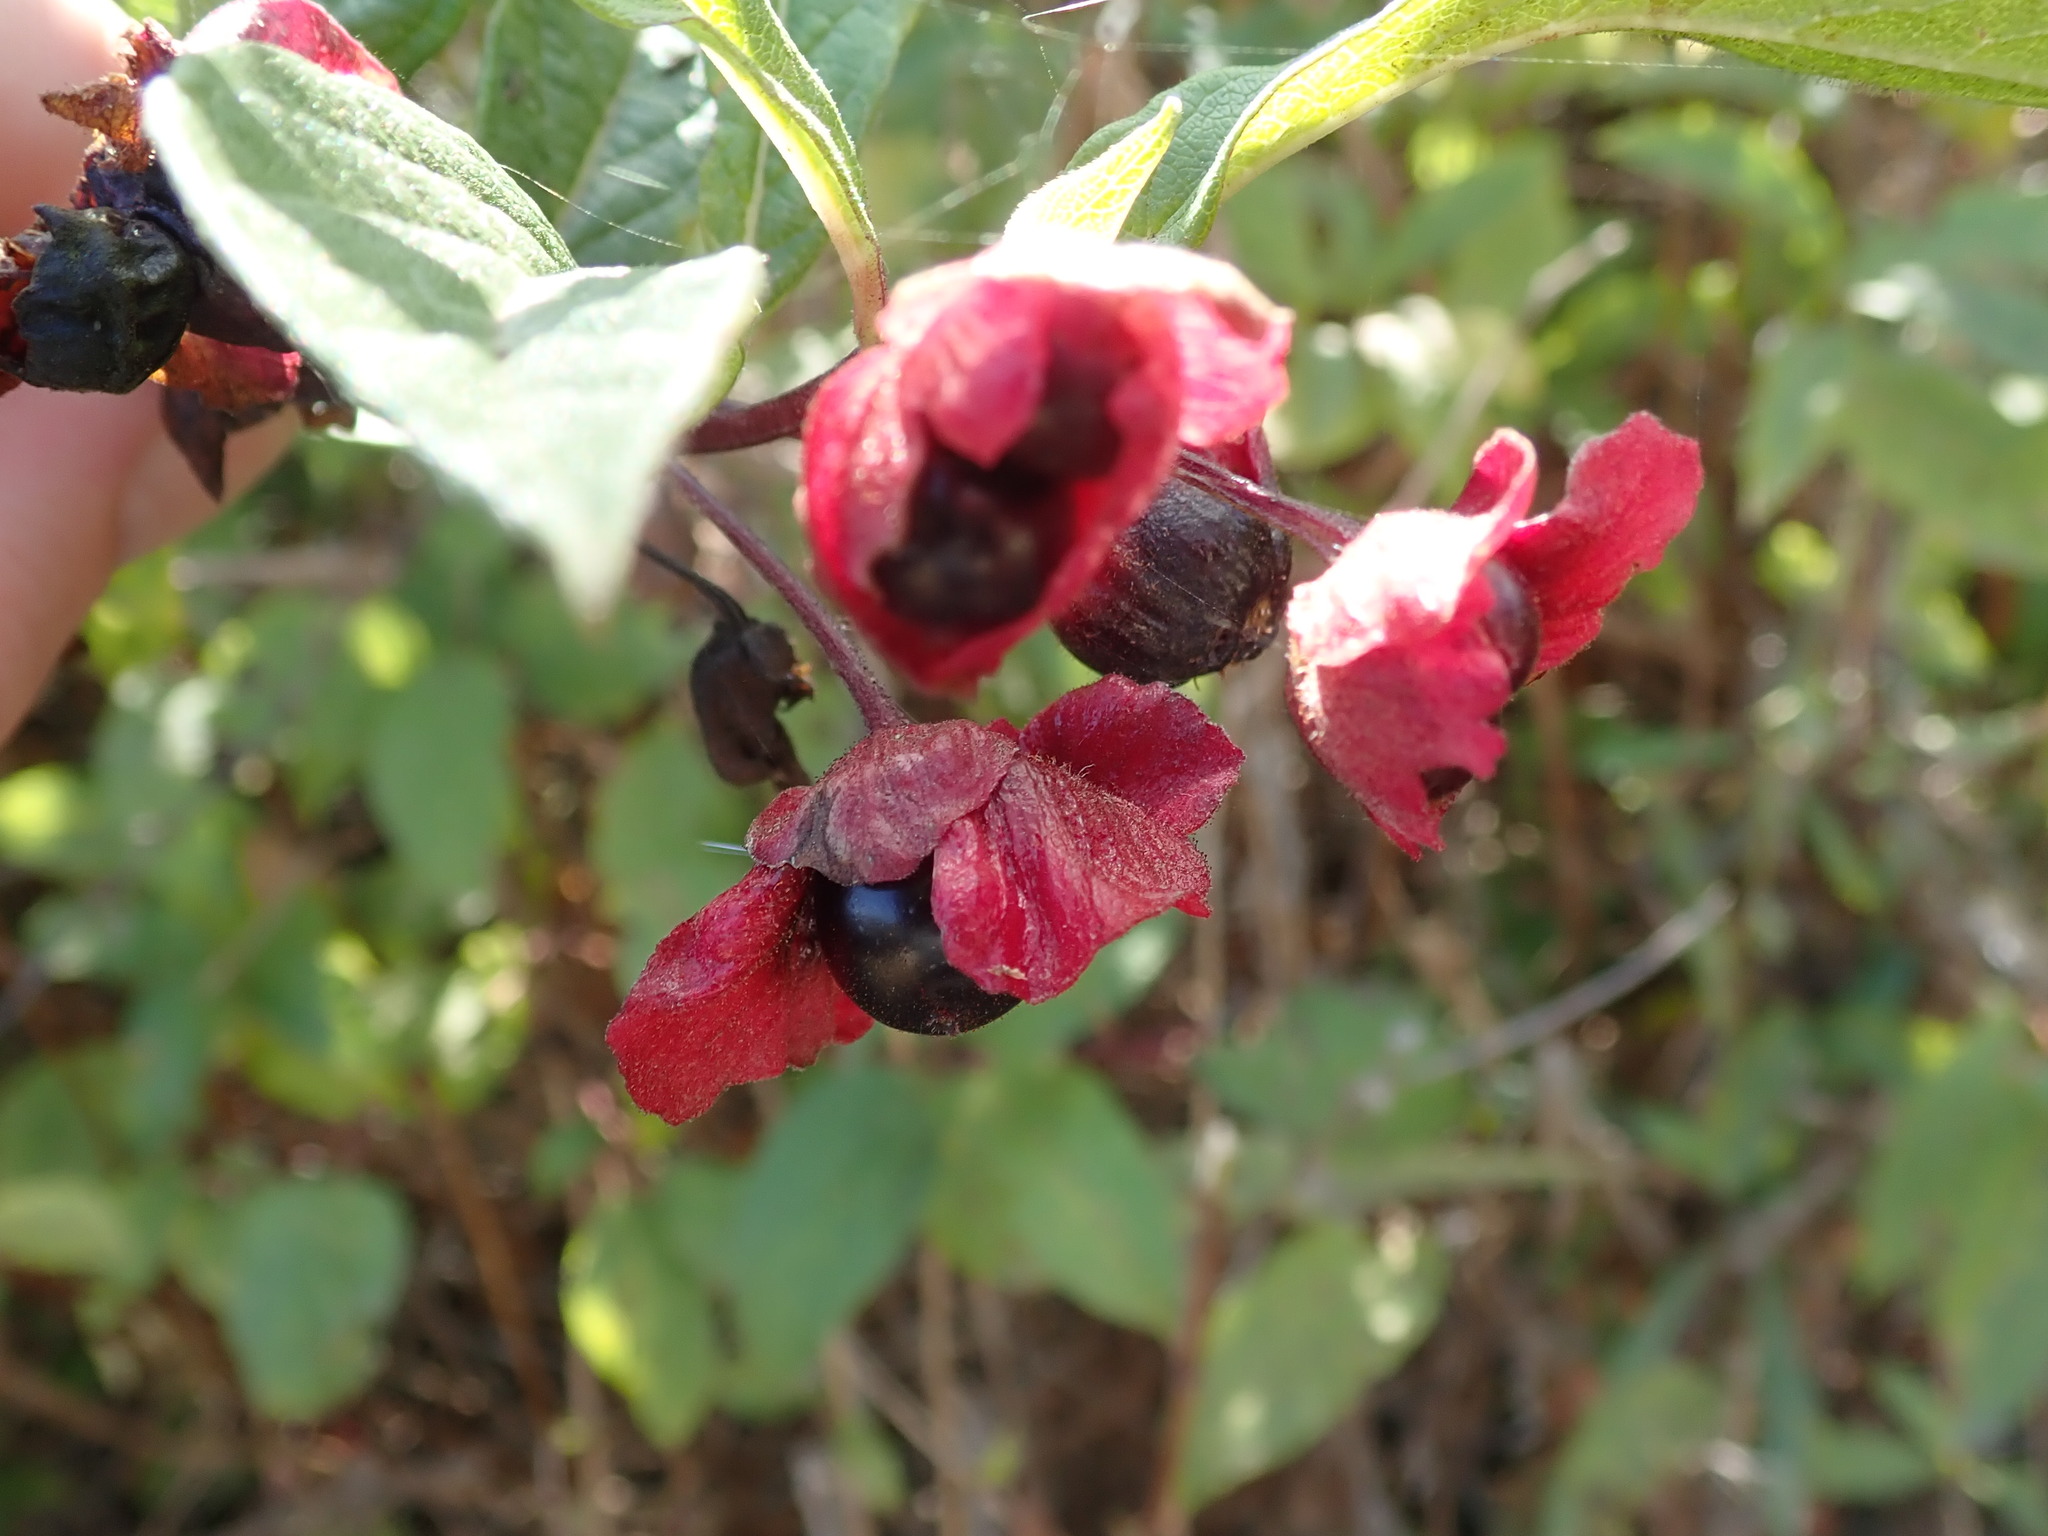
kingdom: Plantae
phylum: Tracheophyta
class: Magnoliopsida
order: Dipsacales
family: Caprifoliaceae
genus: Lonicera
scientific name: Lonicera involucrata
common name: Californian honeysuckle
